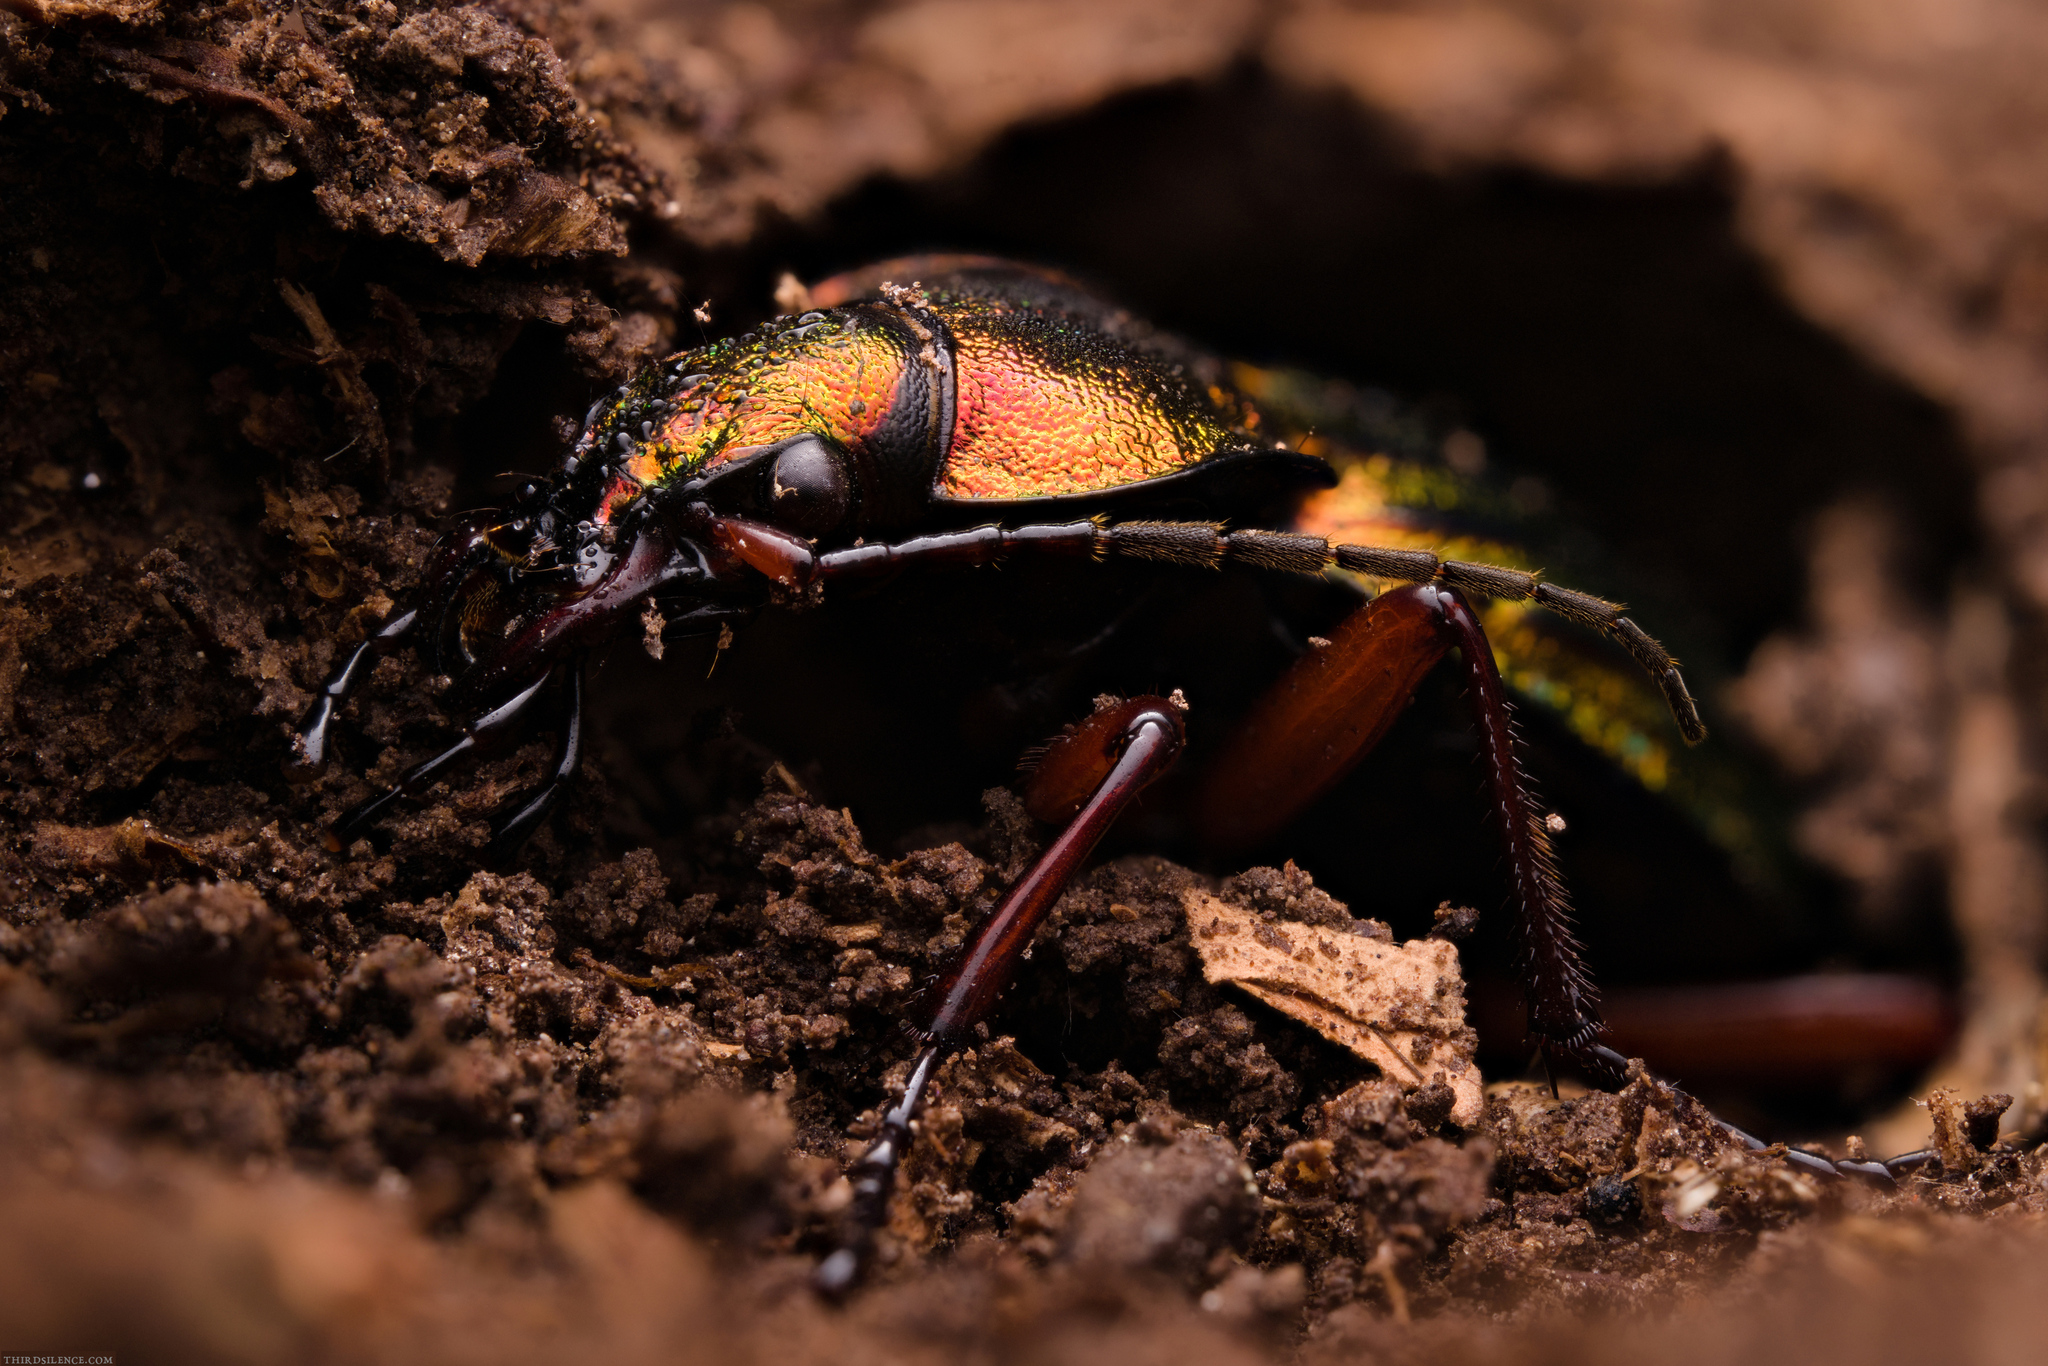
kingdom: Animalia
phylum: Arthropoda
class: Insecta
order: Coleoptera
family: Carabidae
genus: Carabus
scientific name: Carabus auronitens
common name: Carabus auronitens
